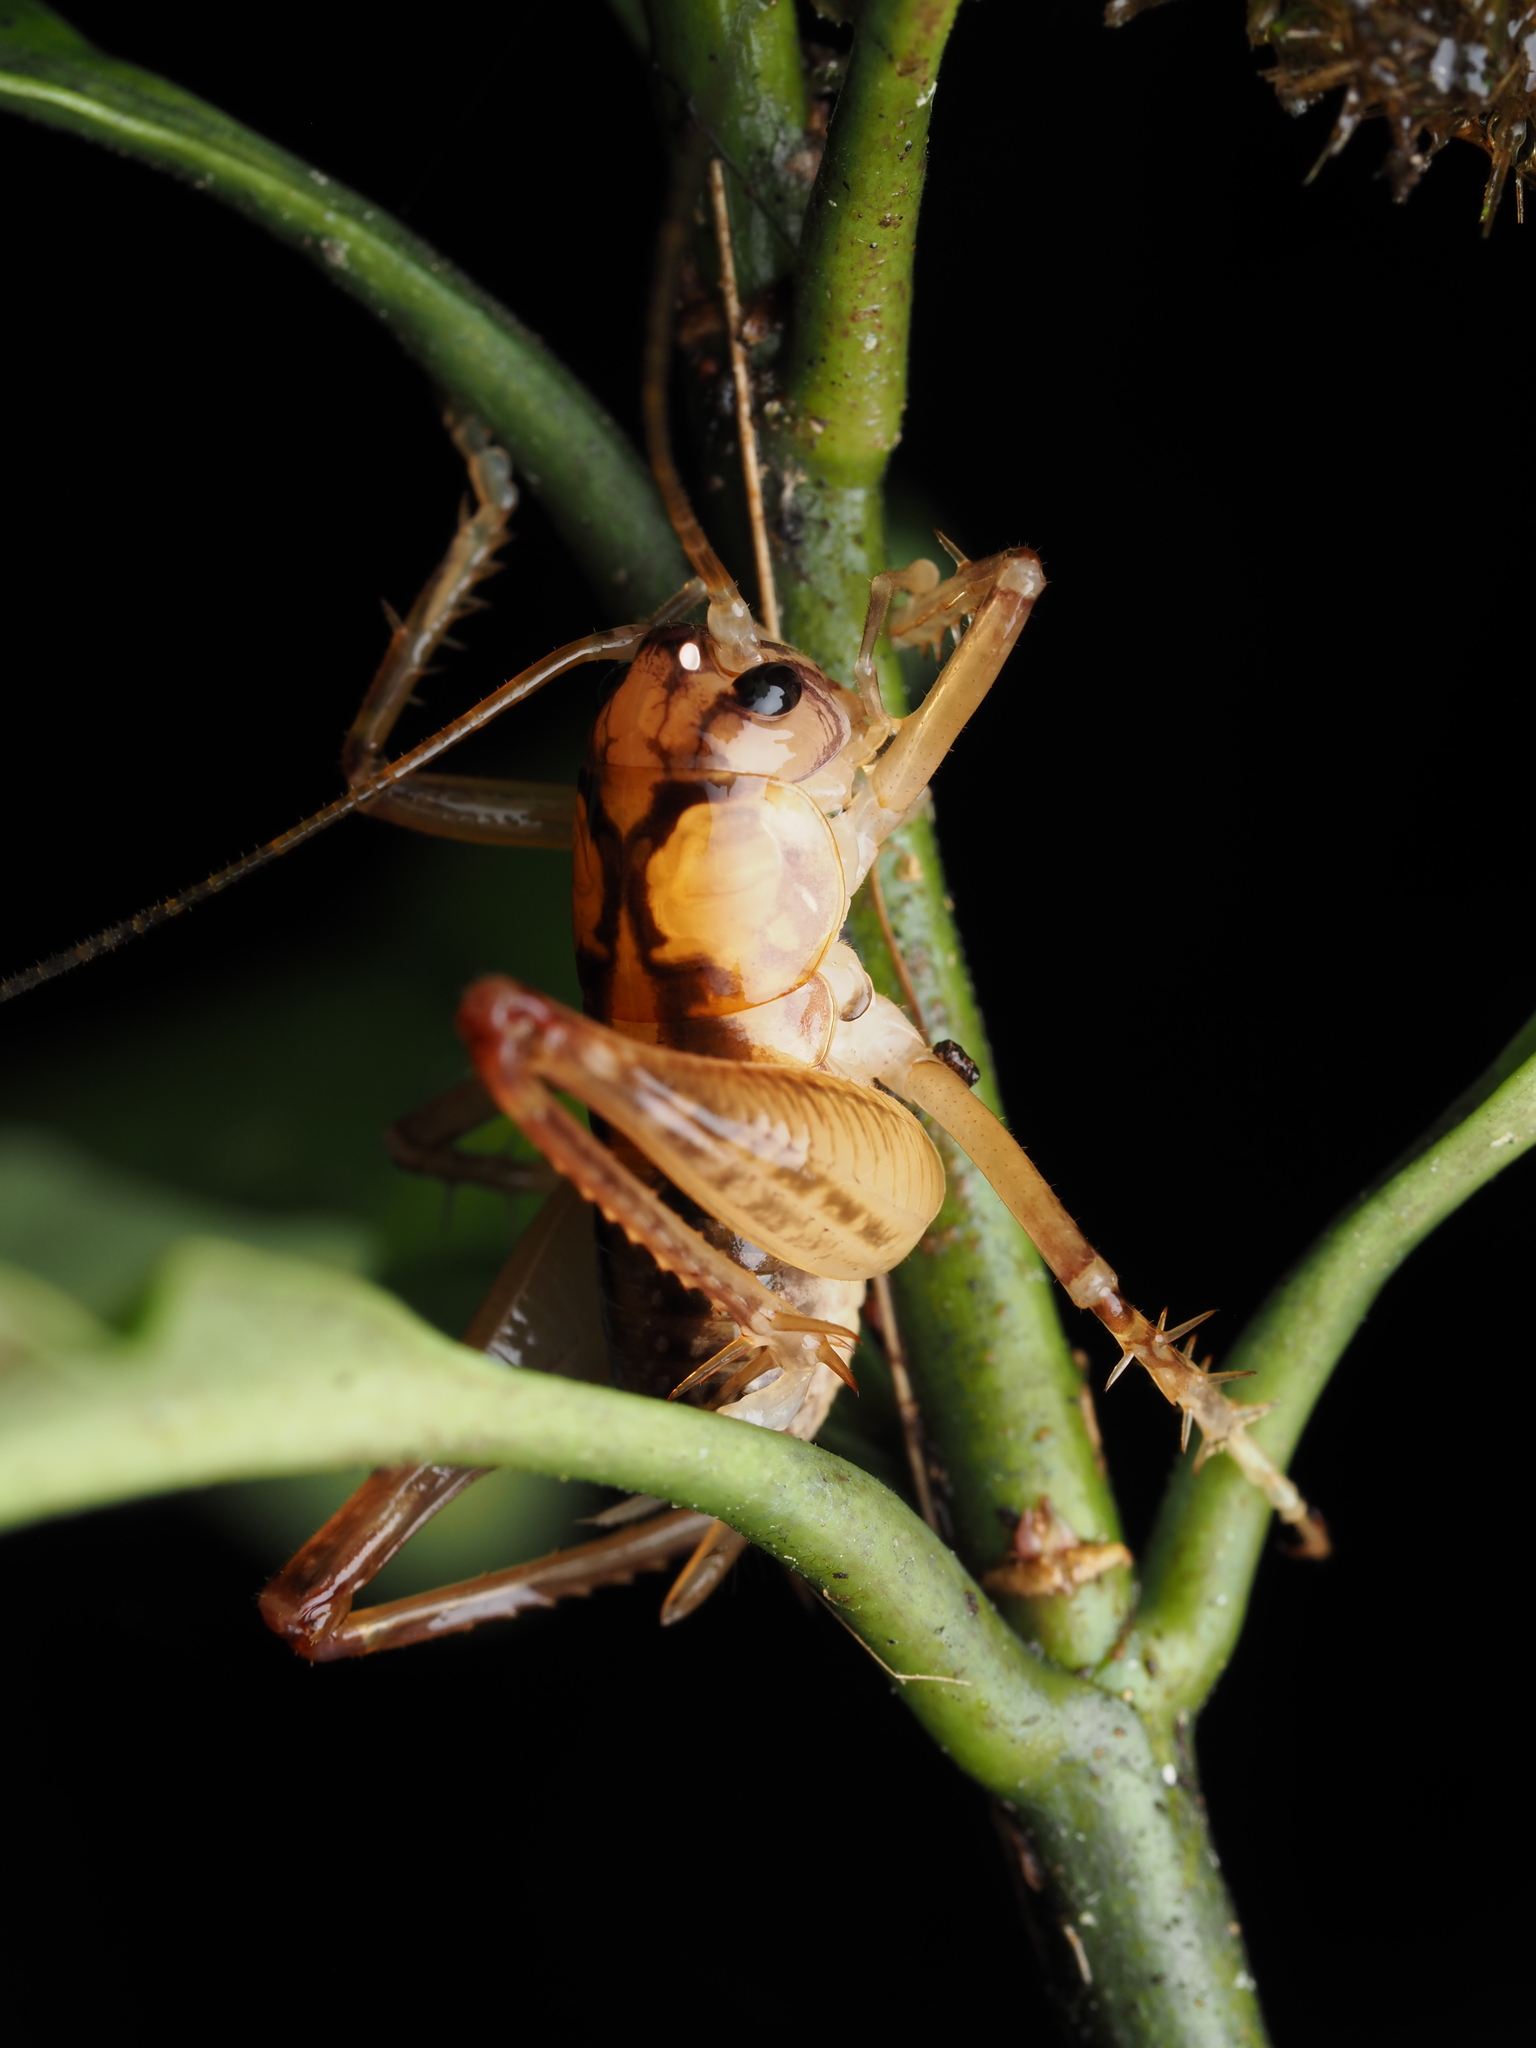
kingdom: Animalia
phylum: Arthropoda
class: Insecta
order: Orthoptera
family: Anostostomatidae
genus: Hemiandrus
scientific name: Hemiandrus jacinda
